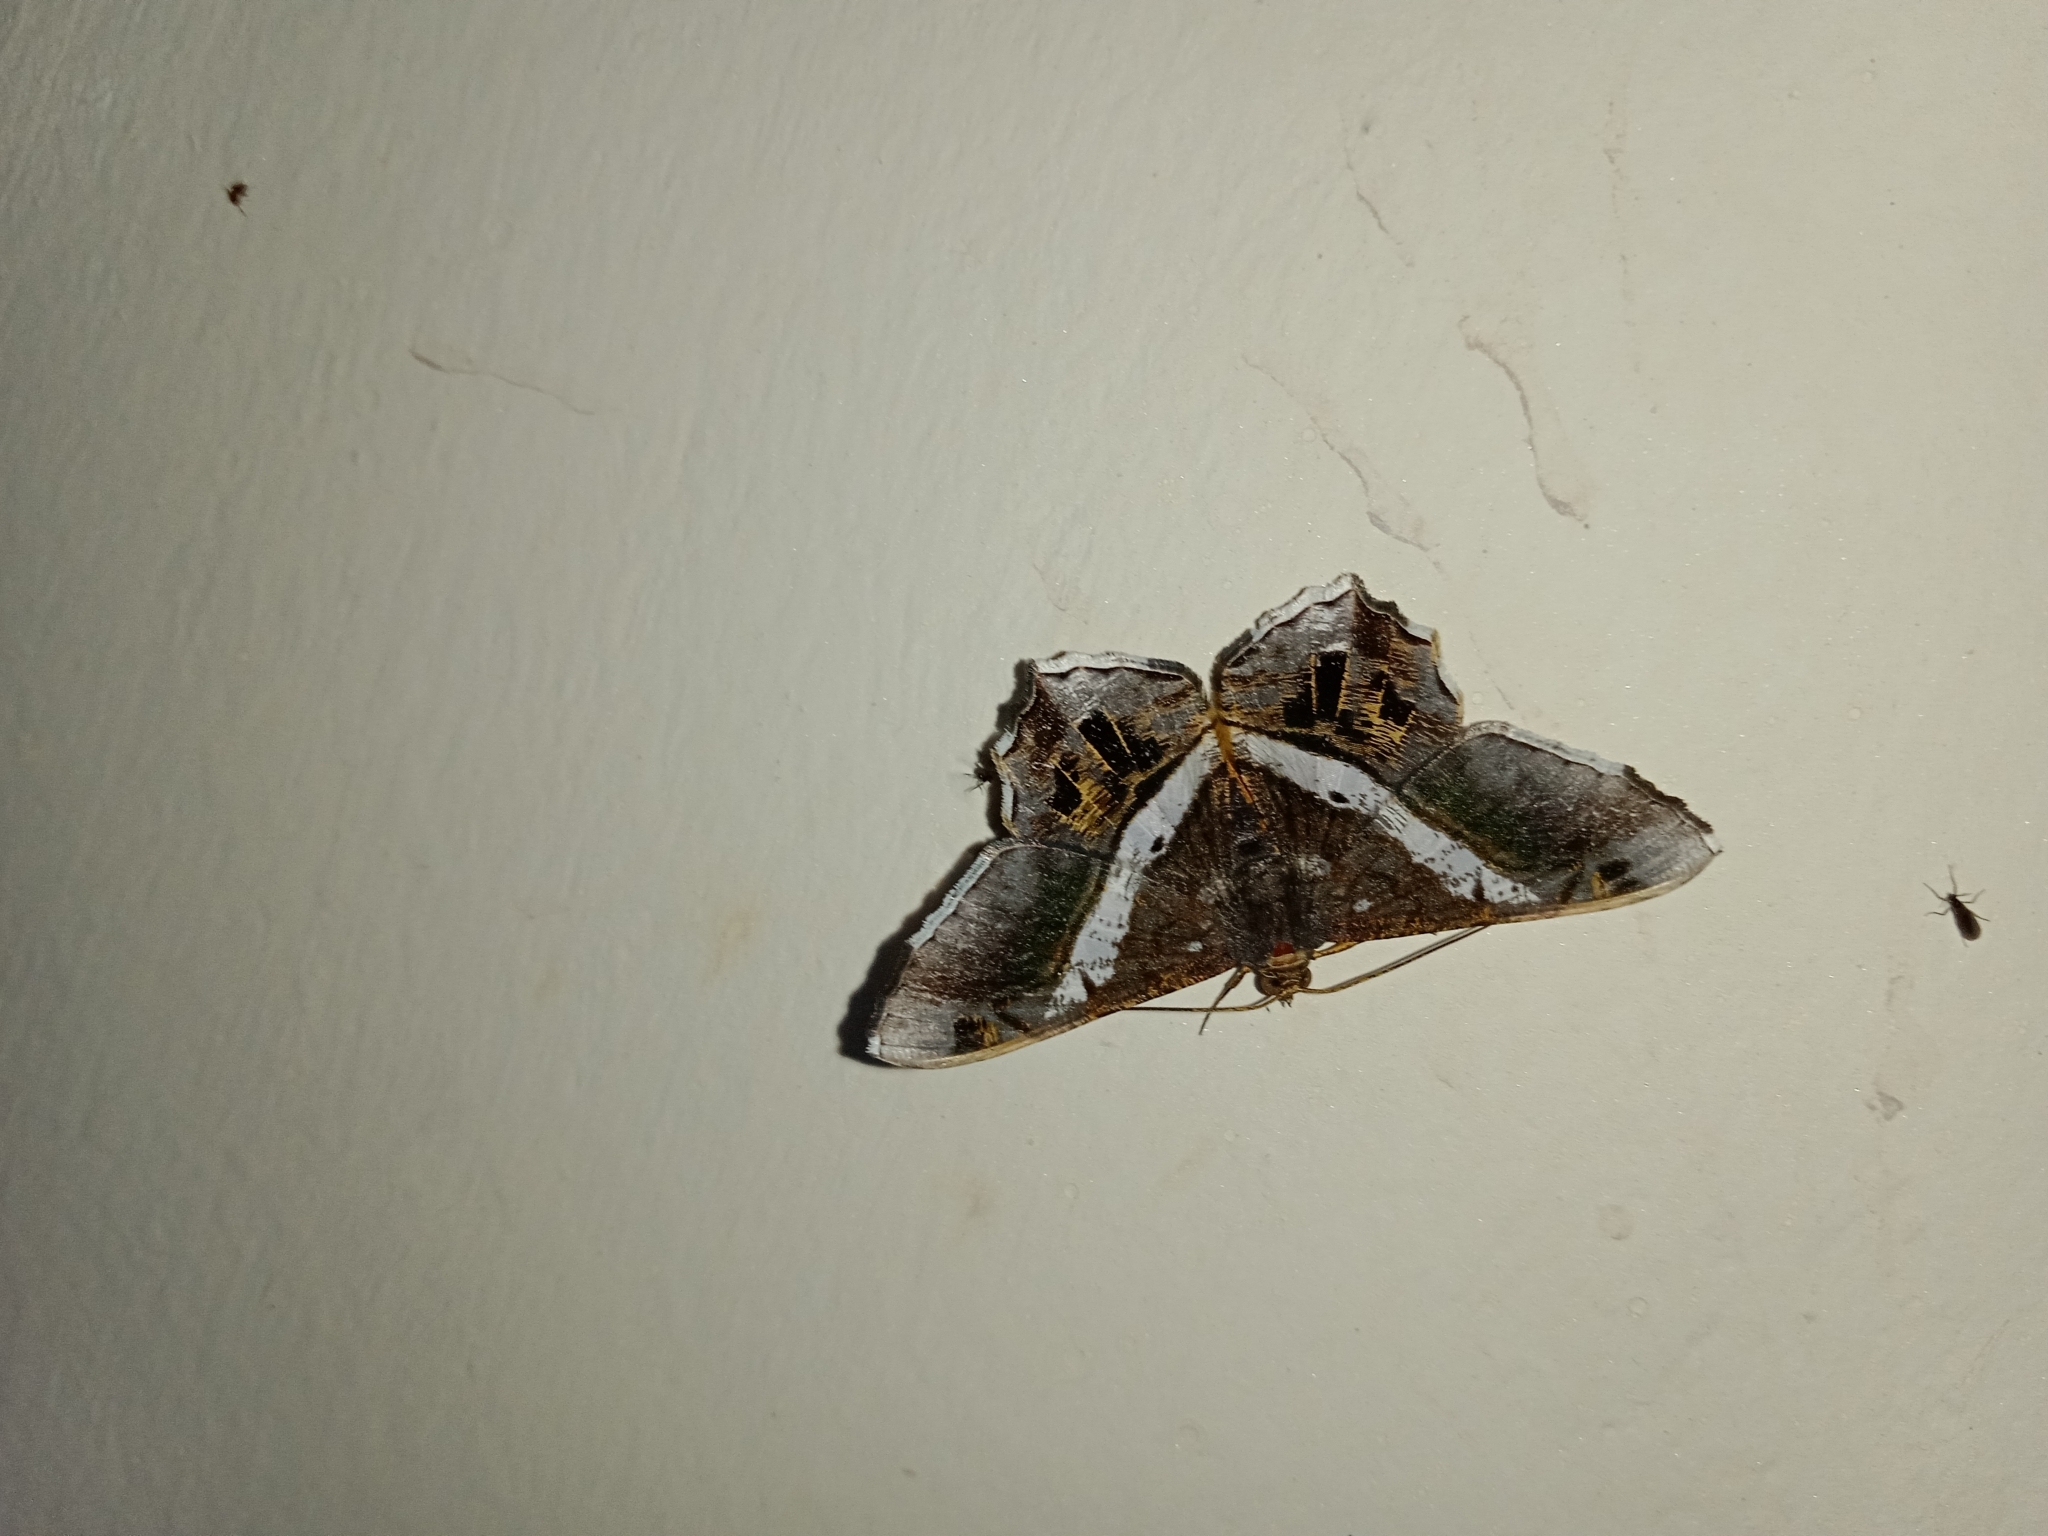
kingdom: Animalia
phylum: Arthropoda
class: Insecta
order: Lepidoptera
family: Geometridae
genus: Chiasmia
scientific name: Chiasmia nora
